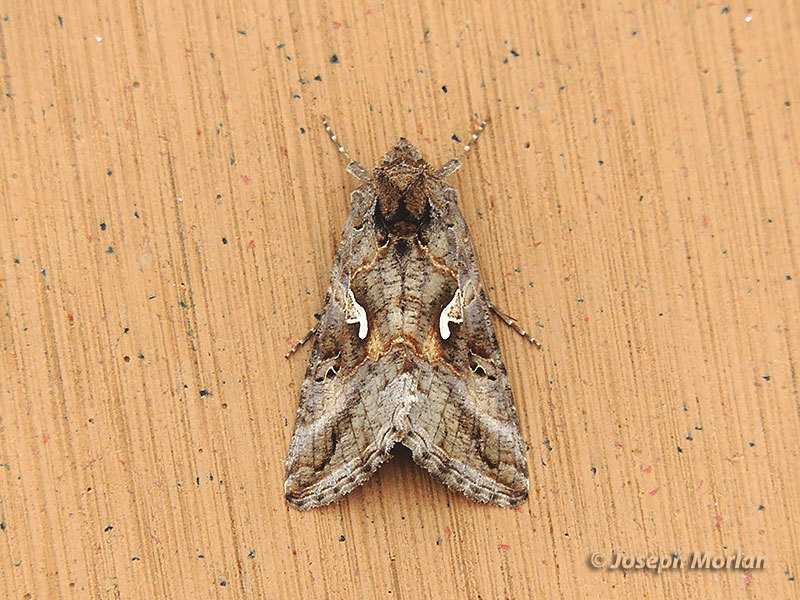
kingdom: Animalia
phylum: Arthropoda
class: Insecta
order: Lepidoptera
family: Noctuidae
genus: Autographa
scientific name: Autographa gamma
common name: Silver y
